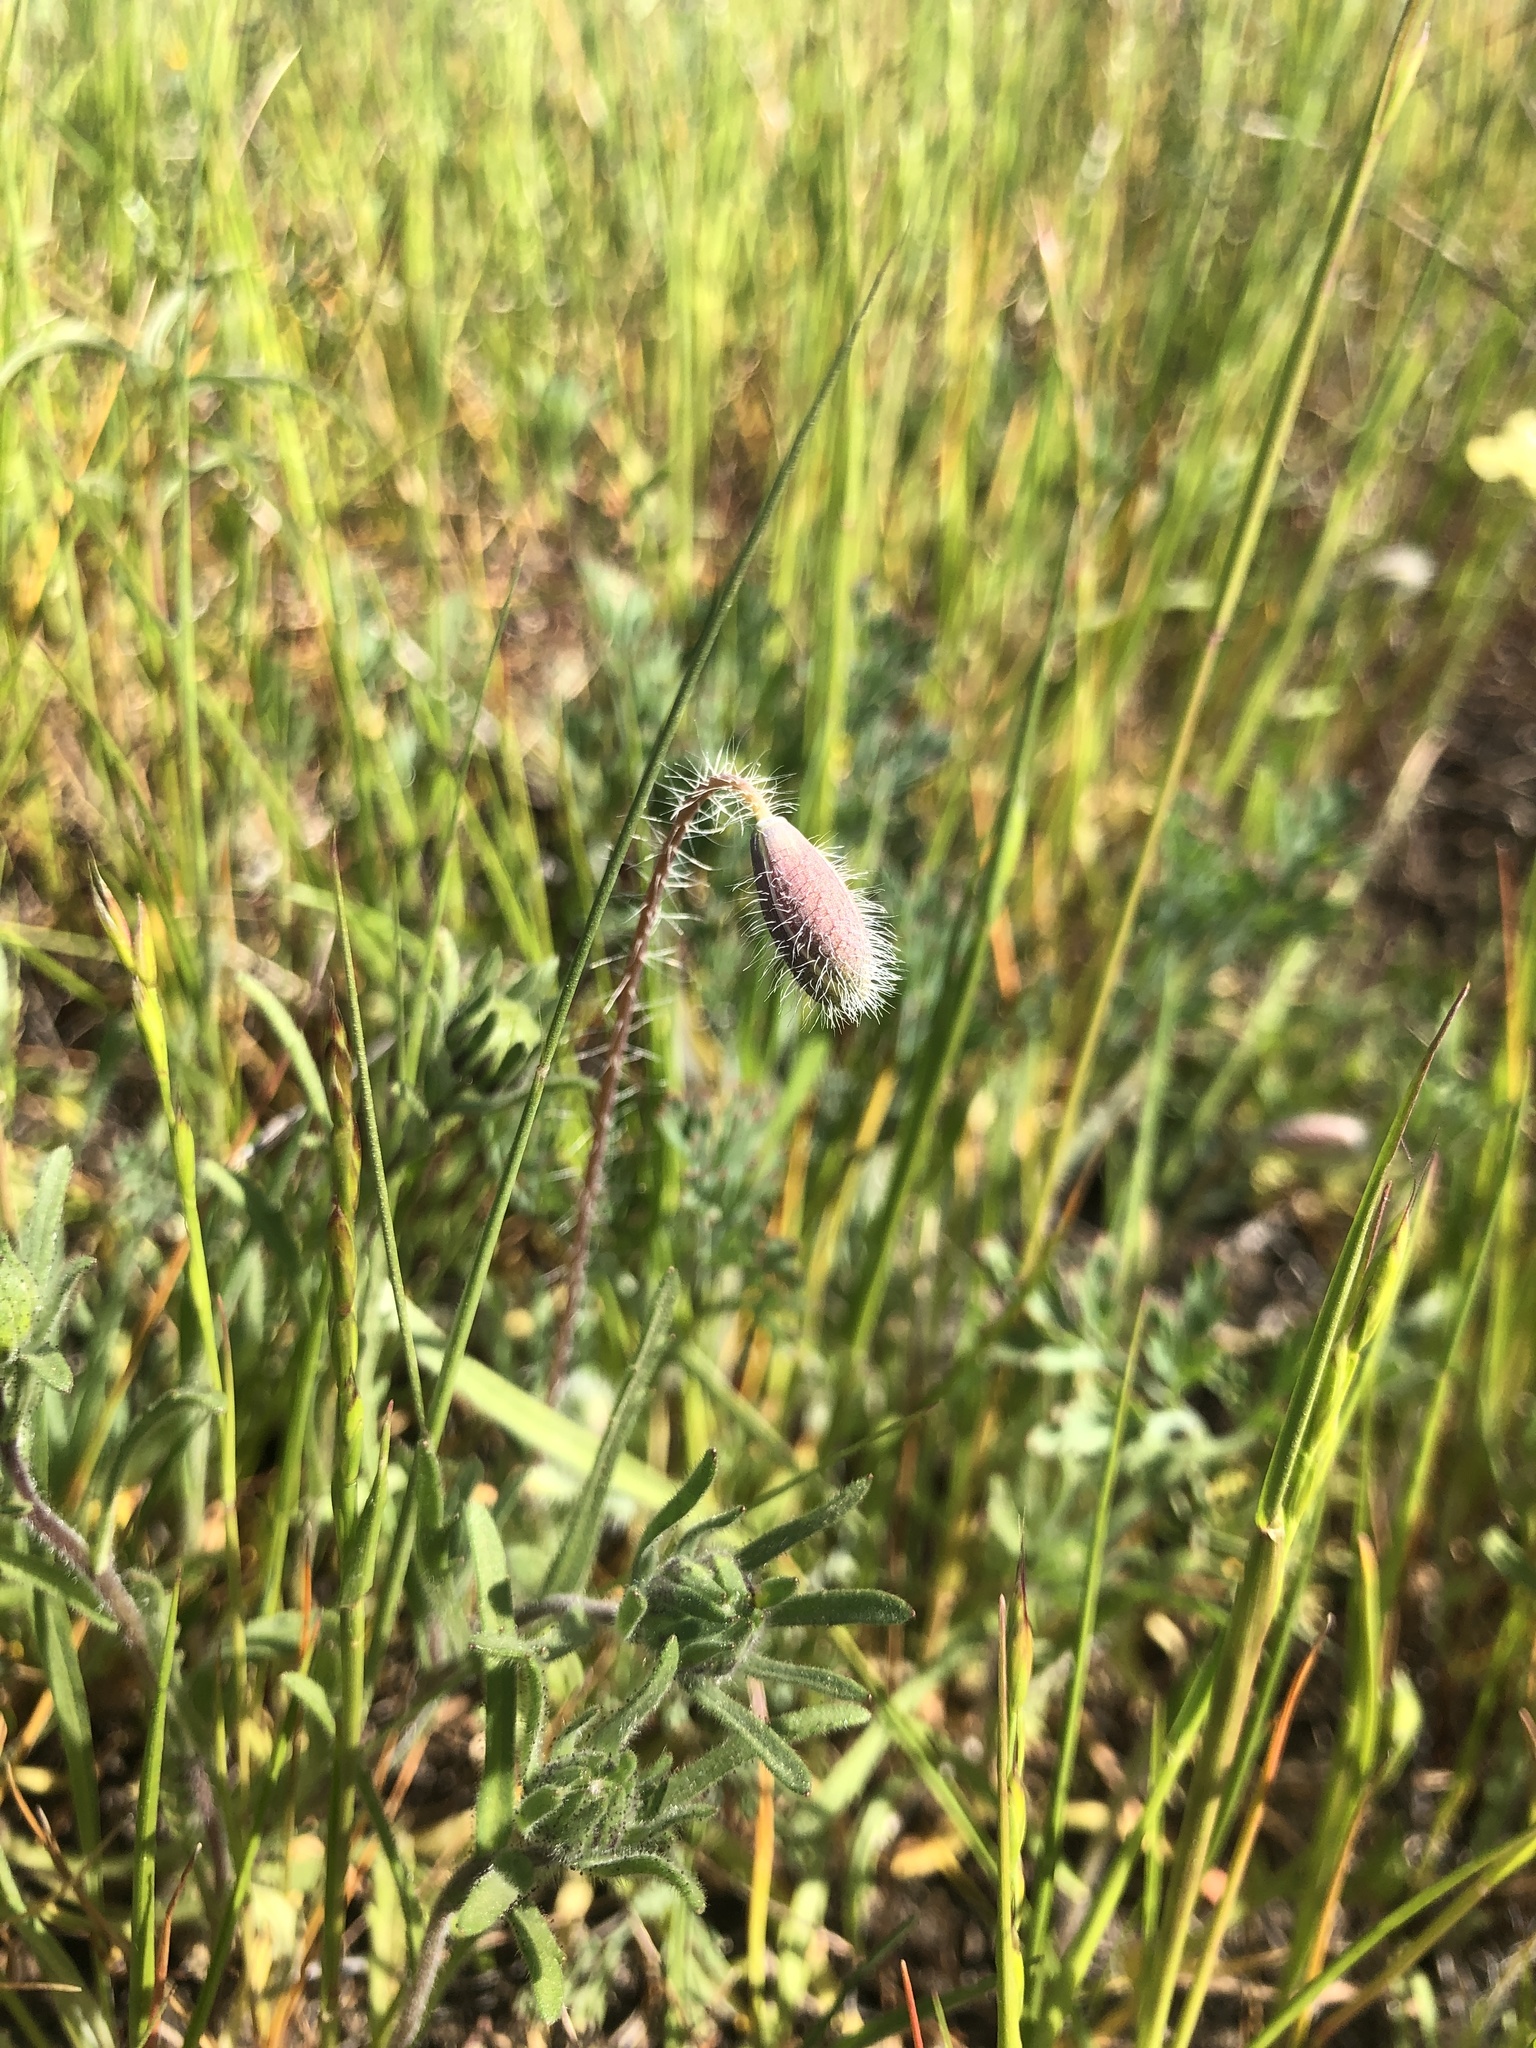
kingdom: Plantae
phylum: Tracheophyta
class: Magnoliopsida
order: Ranunculales
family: Papaveraceae
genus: Platystemon
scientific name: Platystemon californicus
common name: Cream-cups
